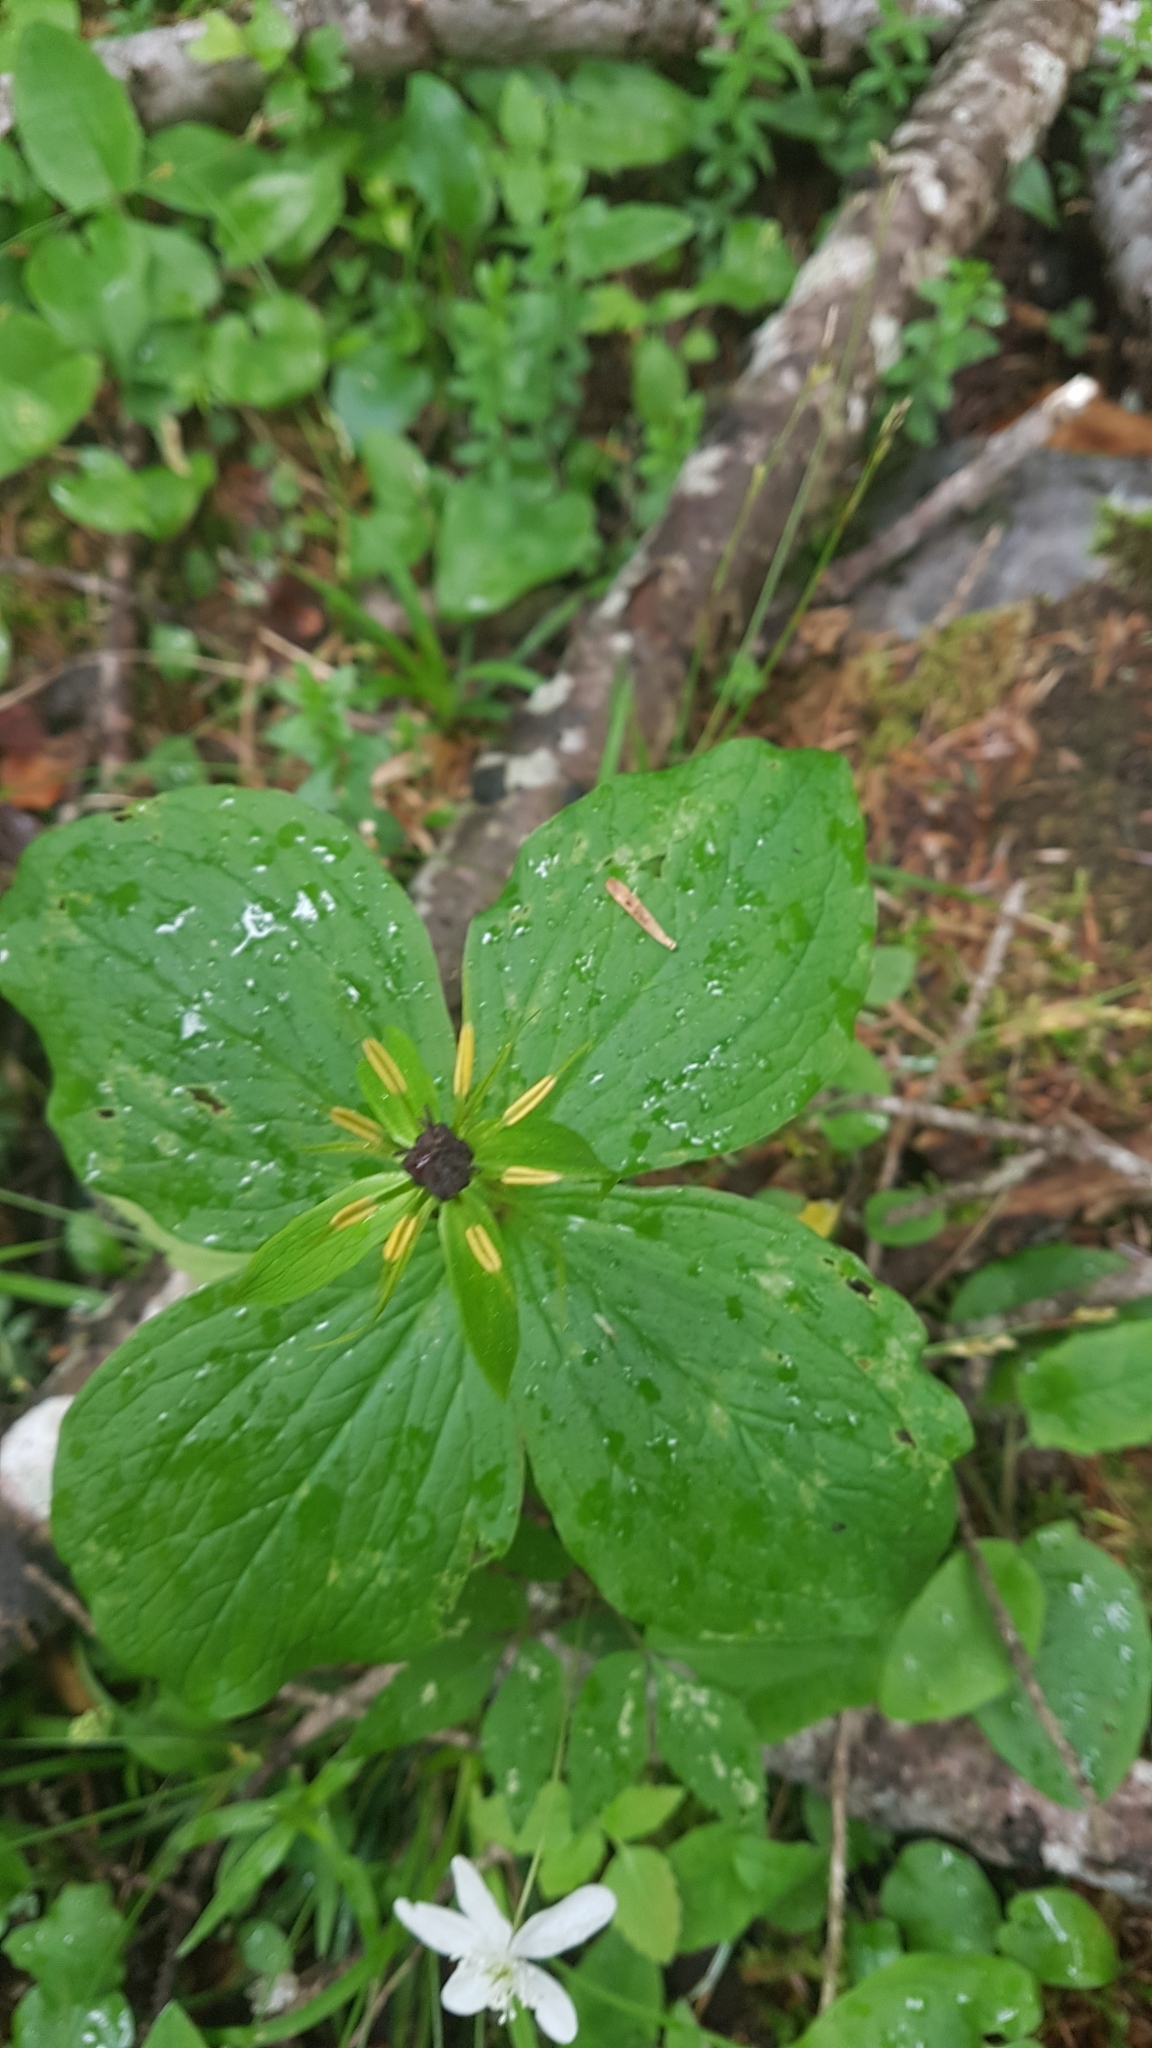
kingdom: Plantae
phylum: Tracheophyta
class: Liliopsida
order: Liliales
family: Melanthiaceae
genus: Paris
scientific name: Paris quadrifolia
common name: Herb-paris
